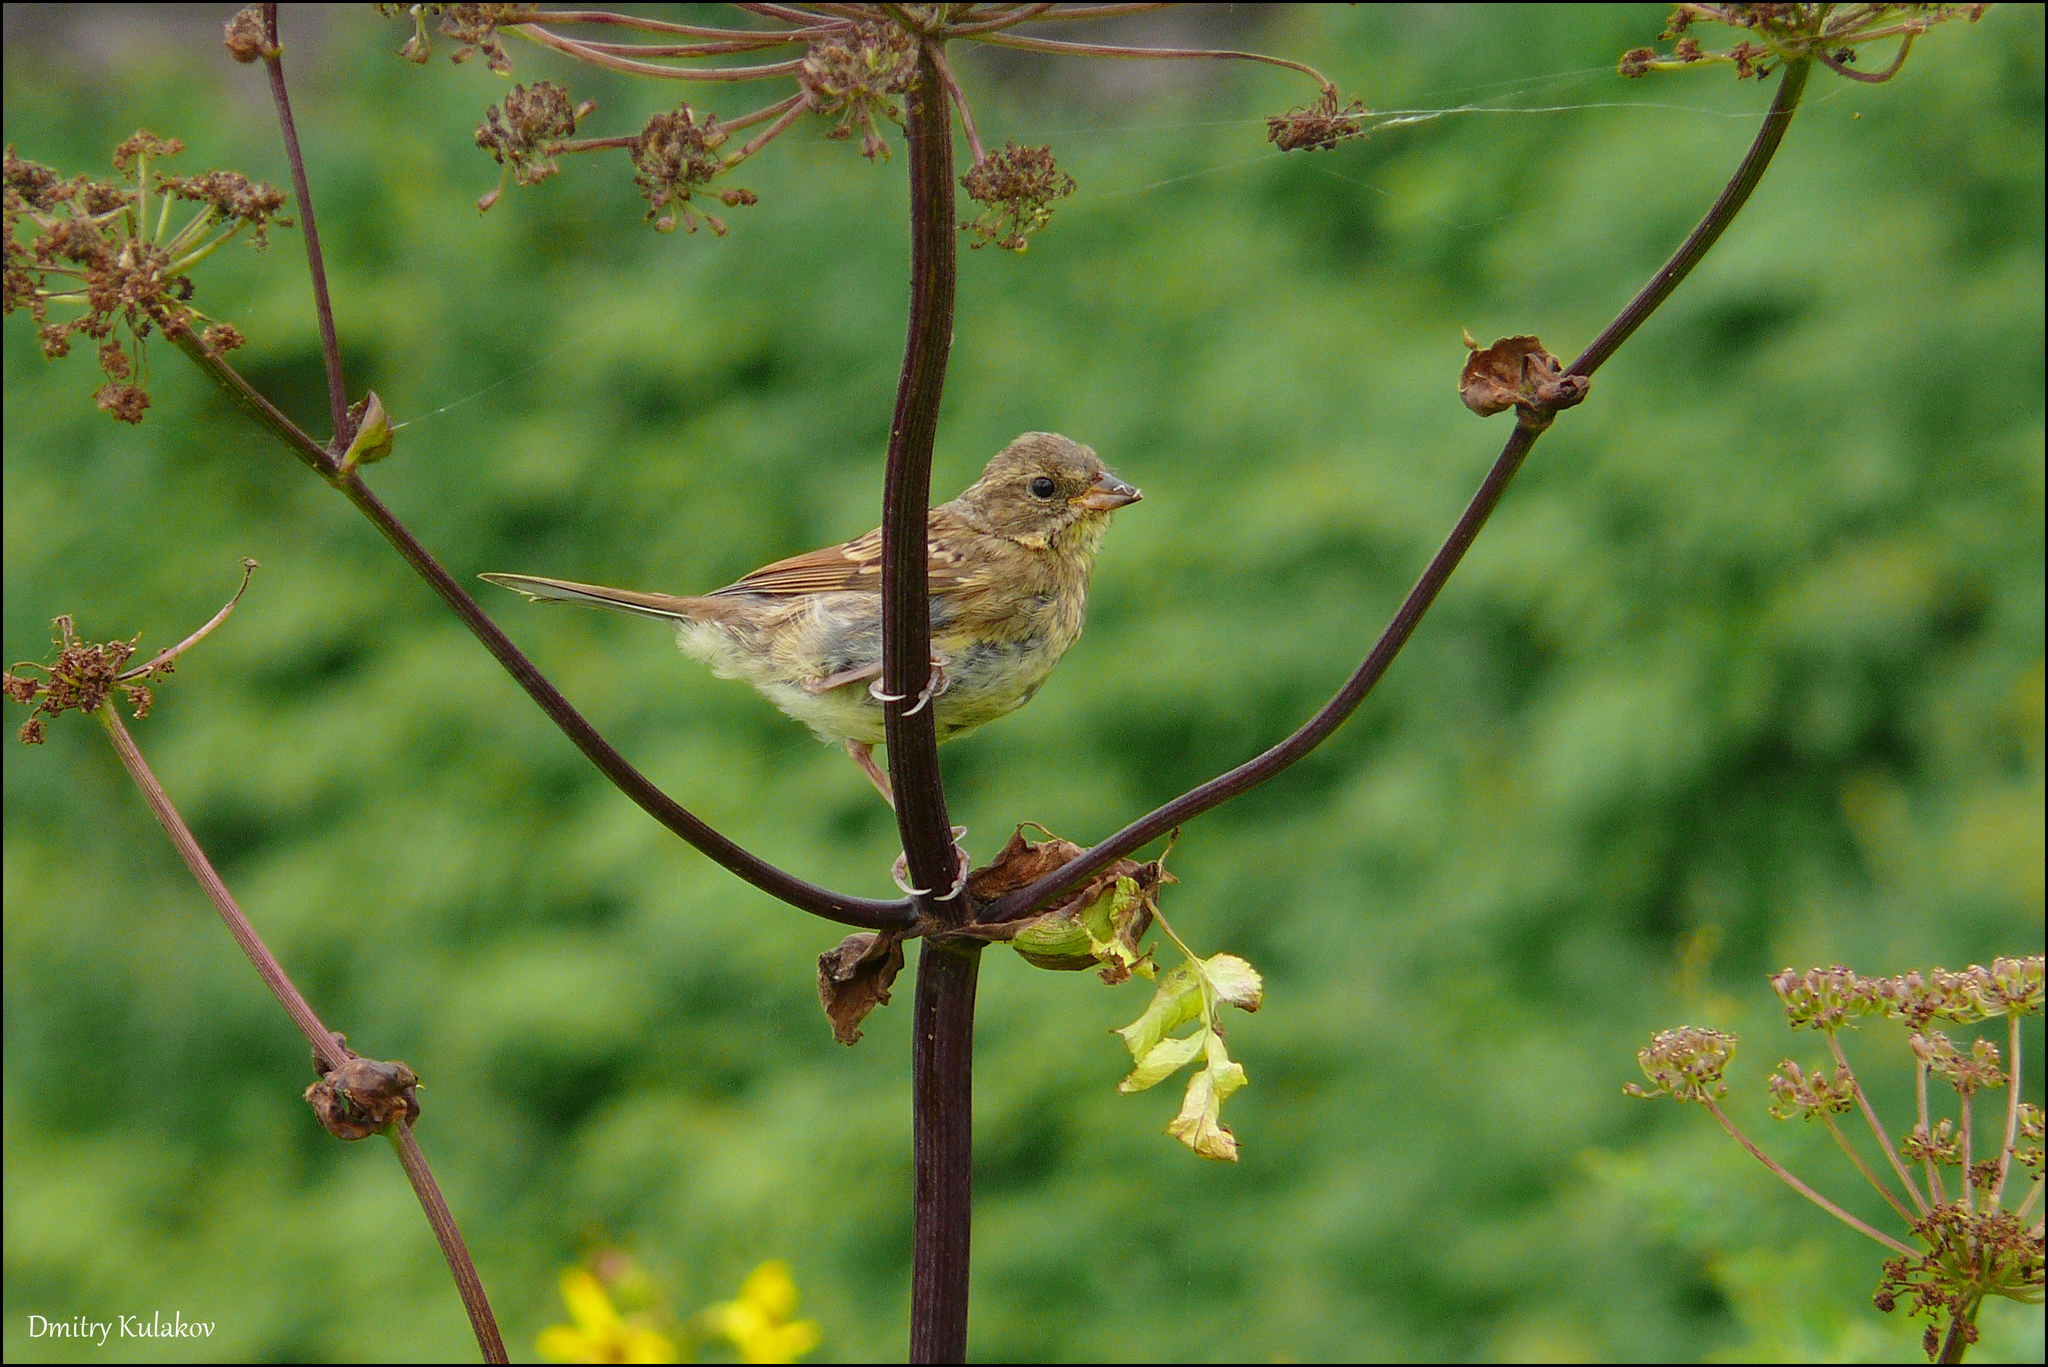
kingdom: Animalia
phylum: Chordata
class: Aves
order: Passeriformes
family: Emberizidae
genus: Emberiza
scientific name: Emberiza personata
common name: Masked bunting
